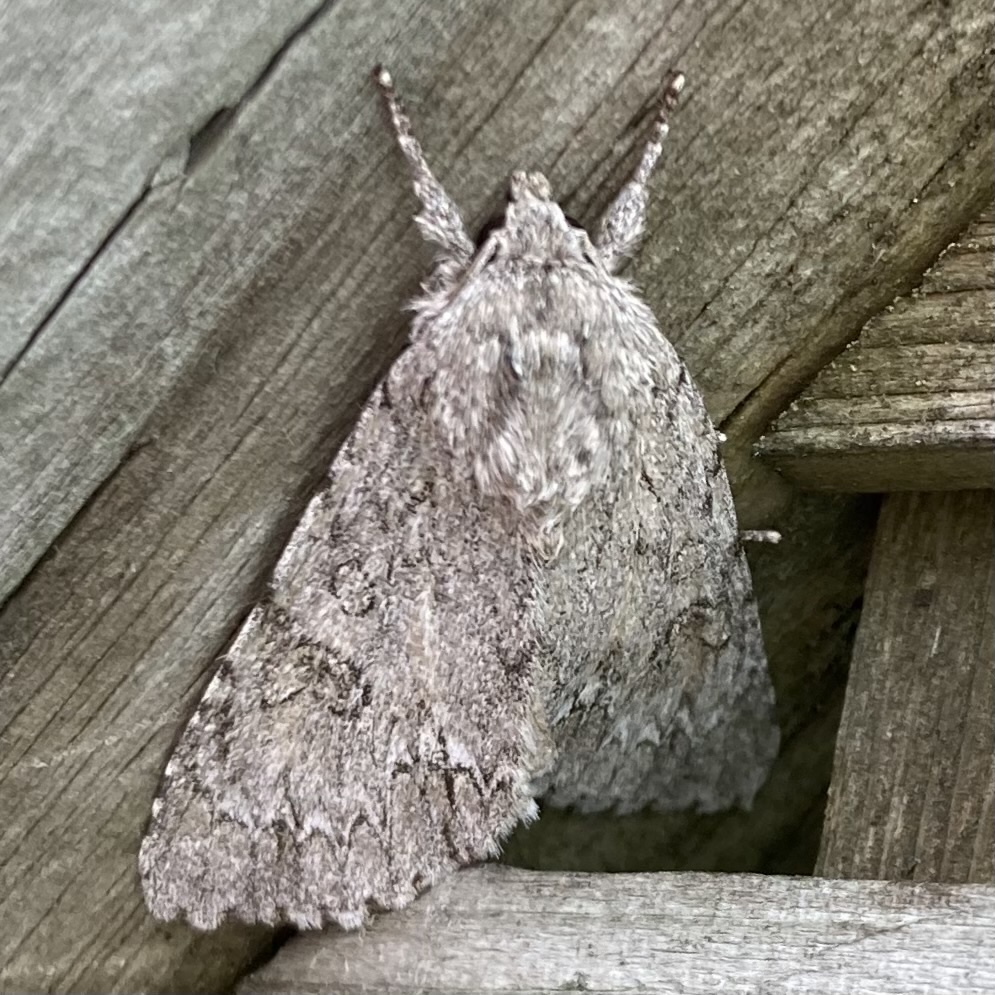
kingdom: Animalia
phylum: Arthropoda
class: Insecta
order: Lepidoptera
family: Noctuidae
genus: Acronicta
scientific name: Acronicta americana
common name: American dagger
